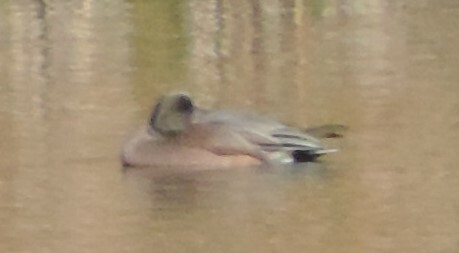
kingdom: Animalia
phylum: Chordata
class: Aves
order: Anseriformes
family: Anatidae
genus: Mareca
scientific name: Mareca americana
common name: American wigeon
